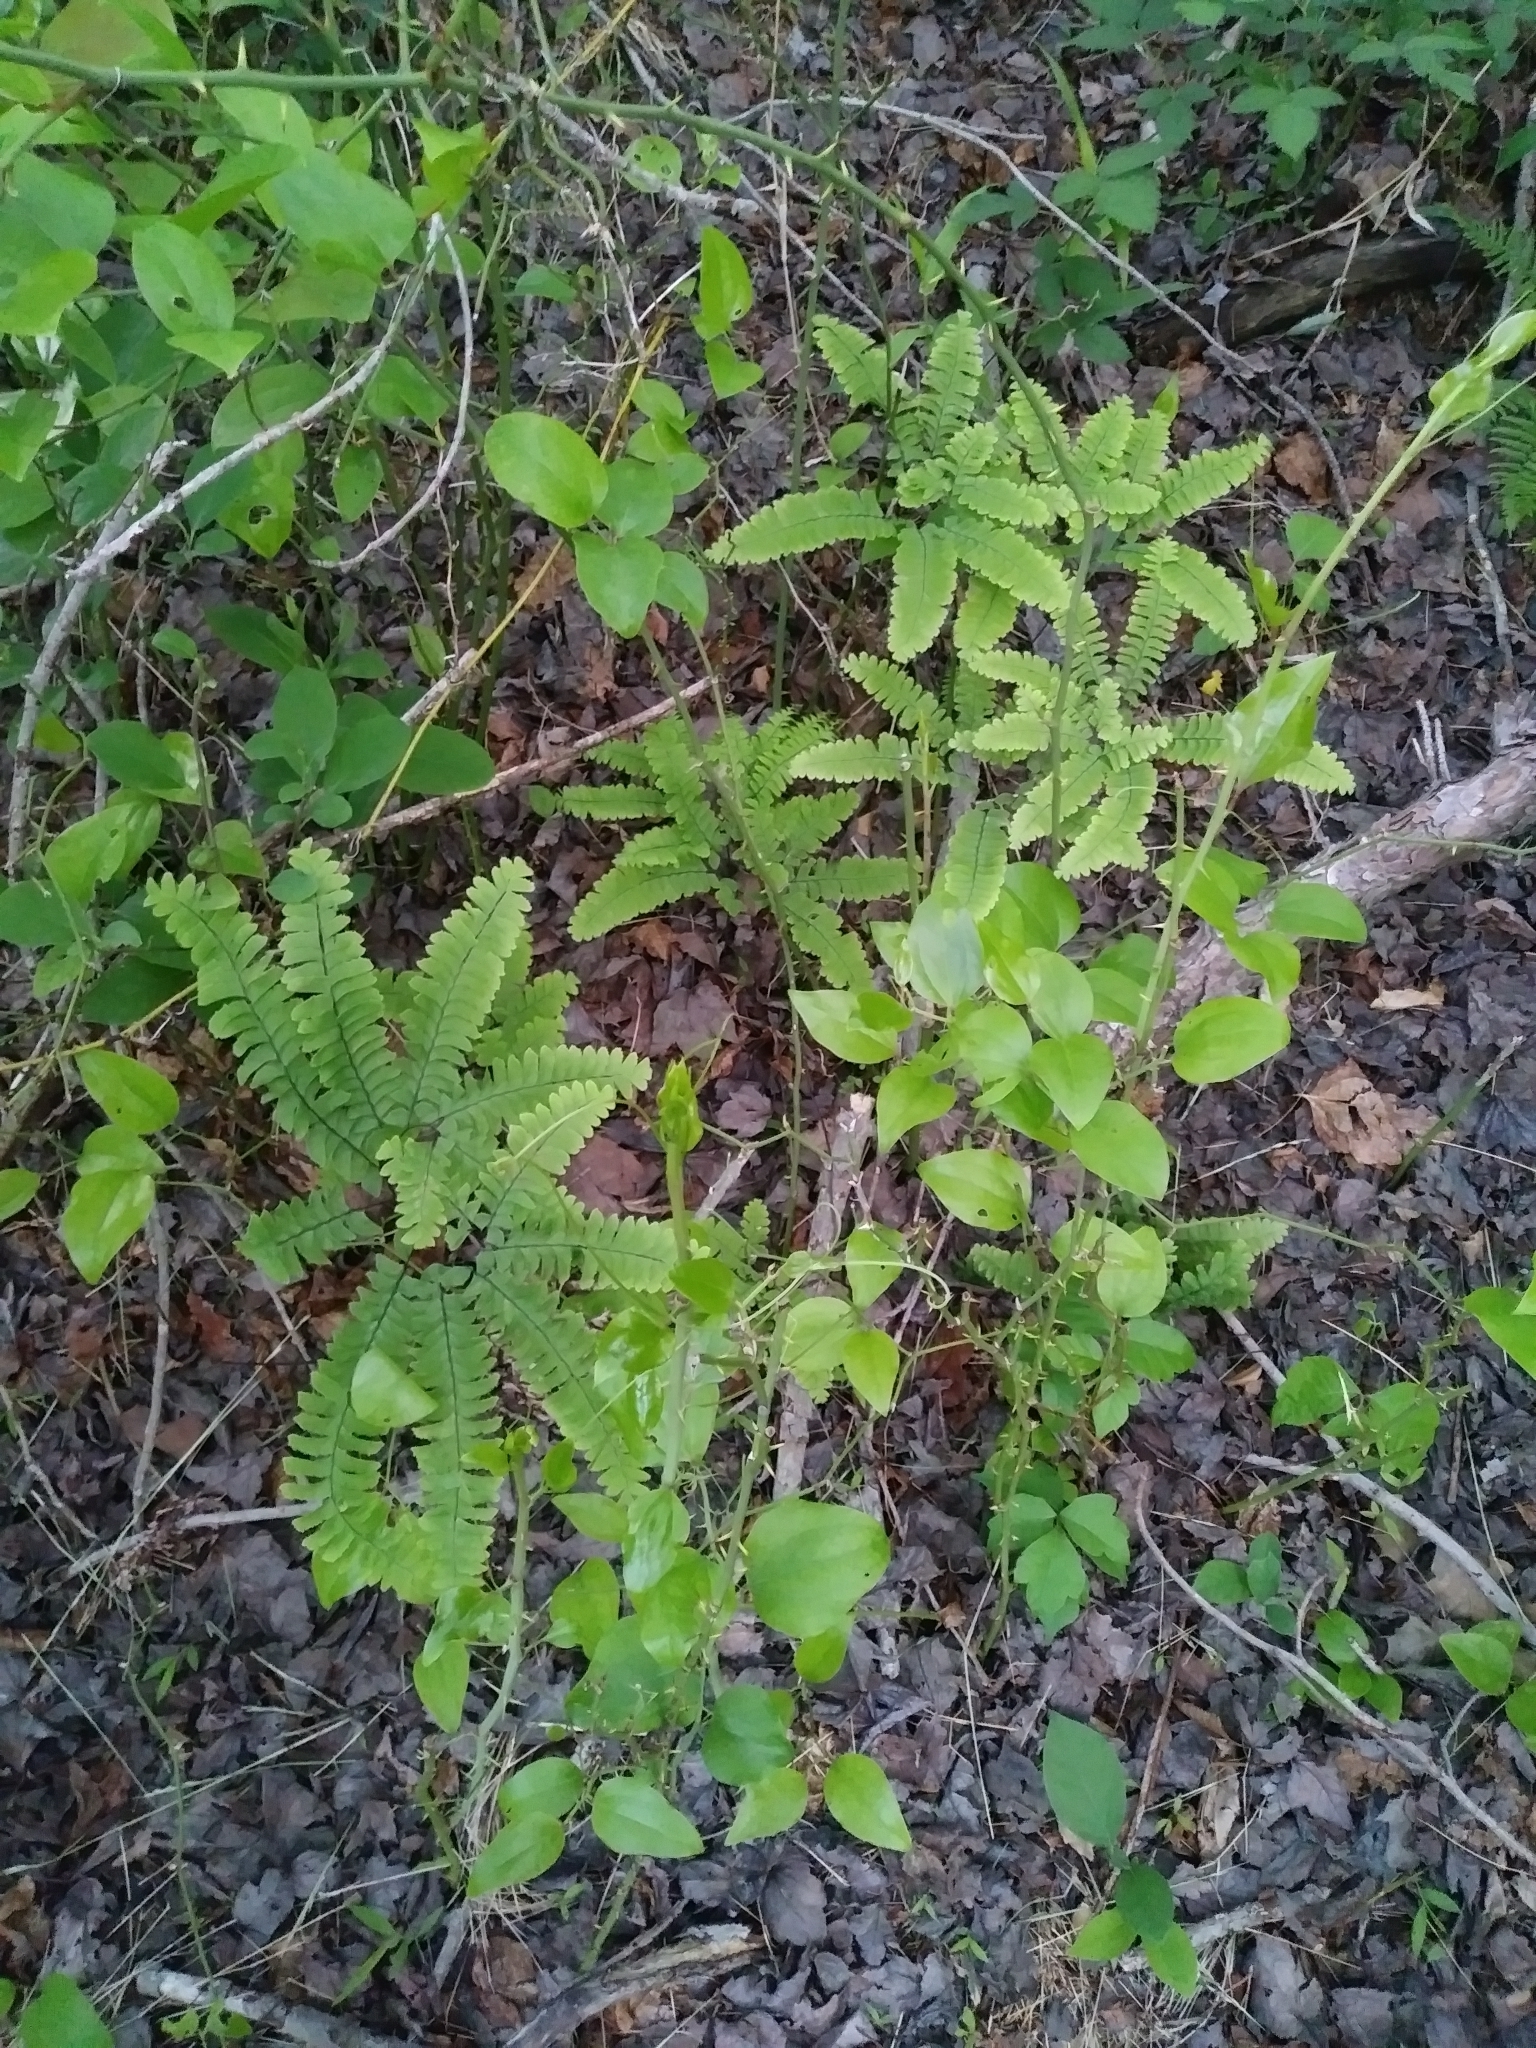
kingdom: Plantae
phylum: Tracheophyta
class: Polypodiopsida
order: Polypodiales
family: Pteridaceae
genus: Adiantum
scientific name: Adiantum pedatum
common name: Five-finger fern
